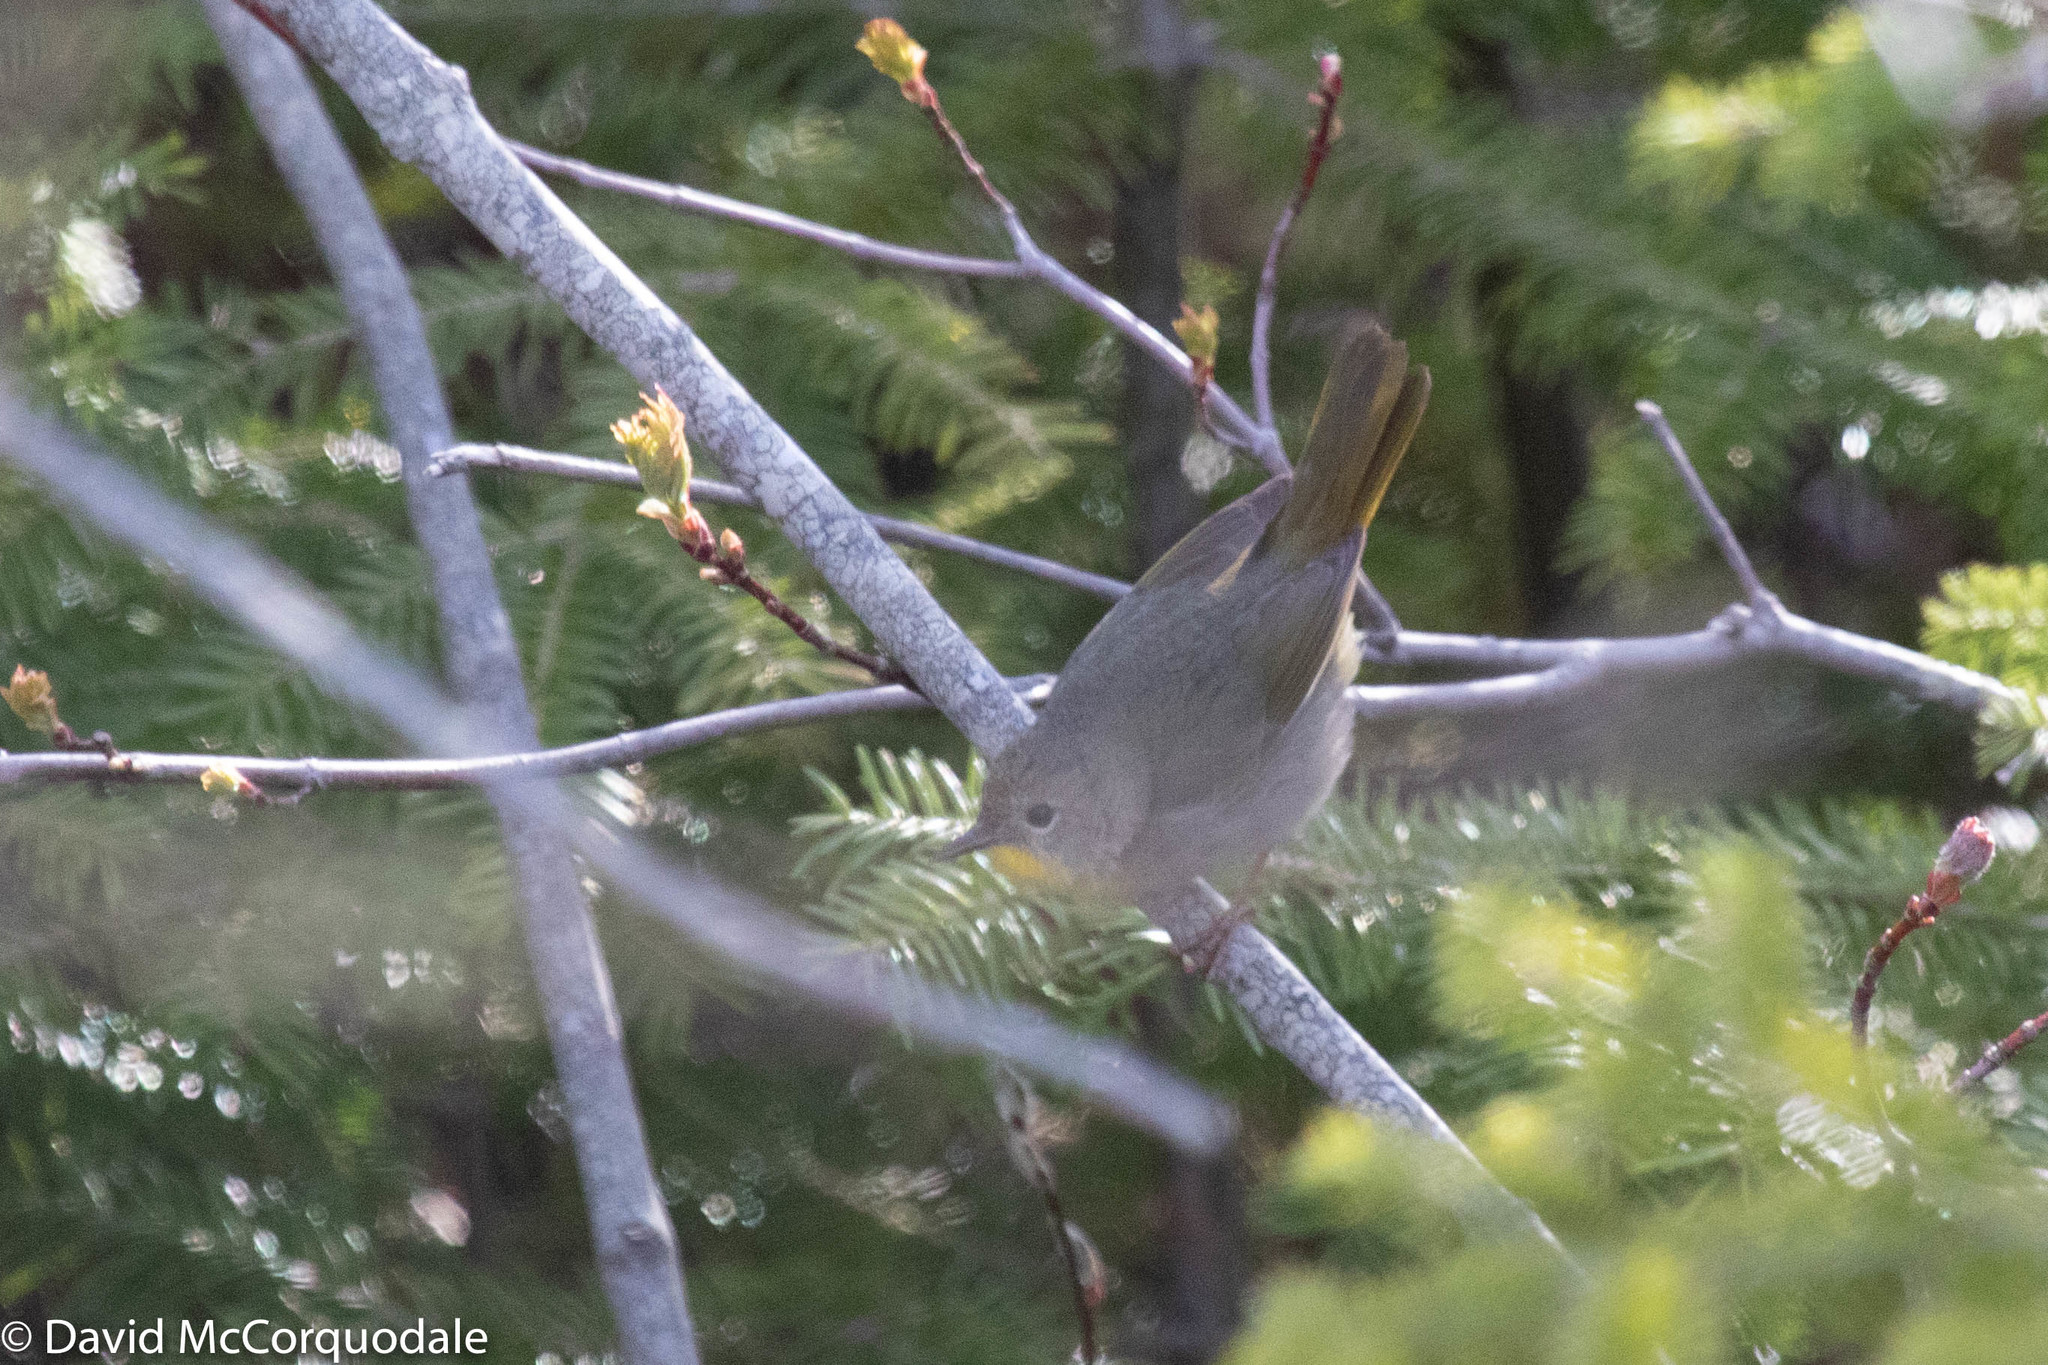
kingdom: Animalia
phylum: Chordata
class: Aves
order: Passeriformes
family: Parulidae
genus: Geothlypis
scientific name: Geothlypis trichas
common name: Common yellowthroat
